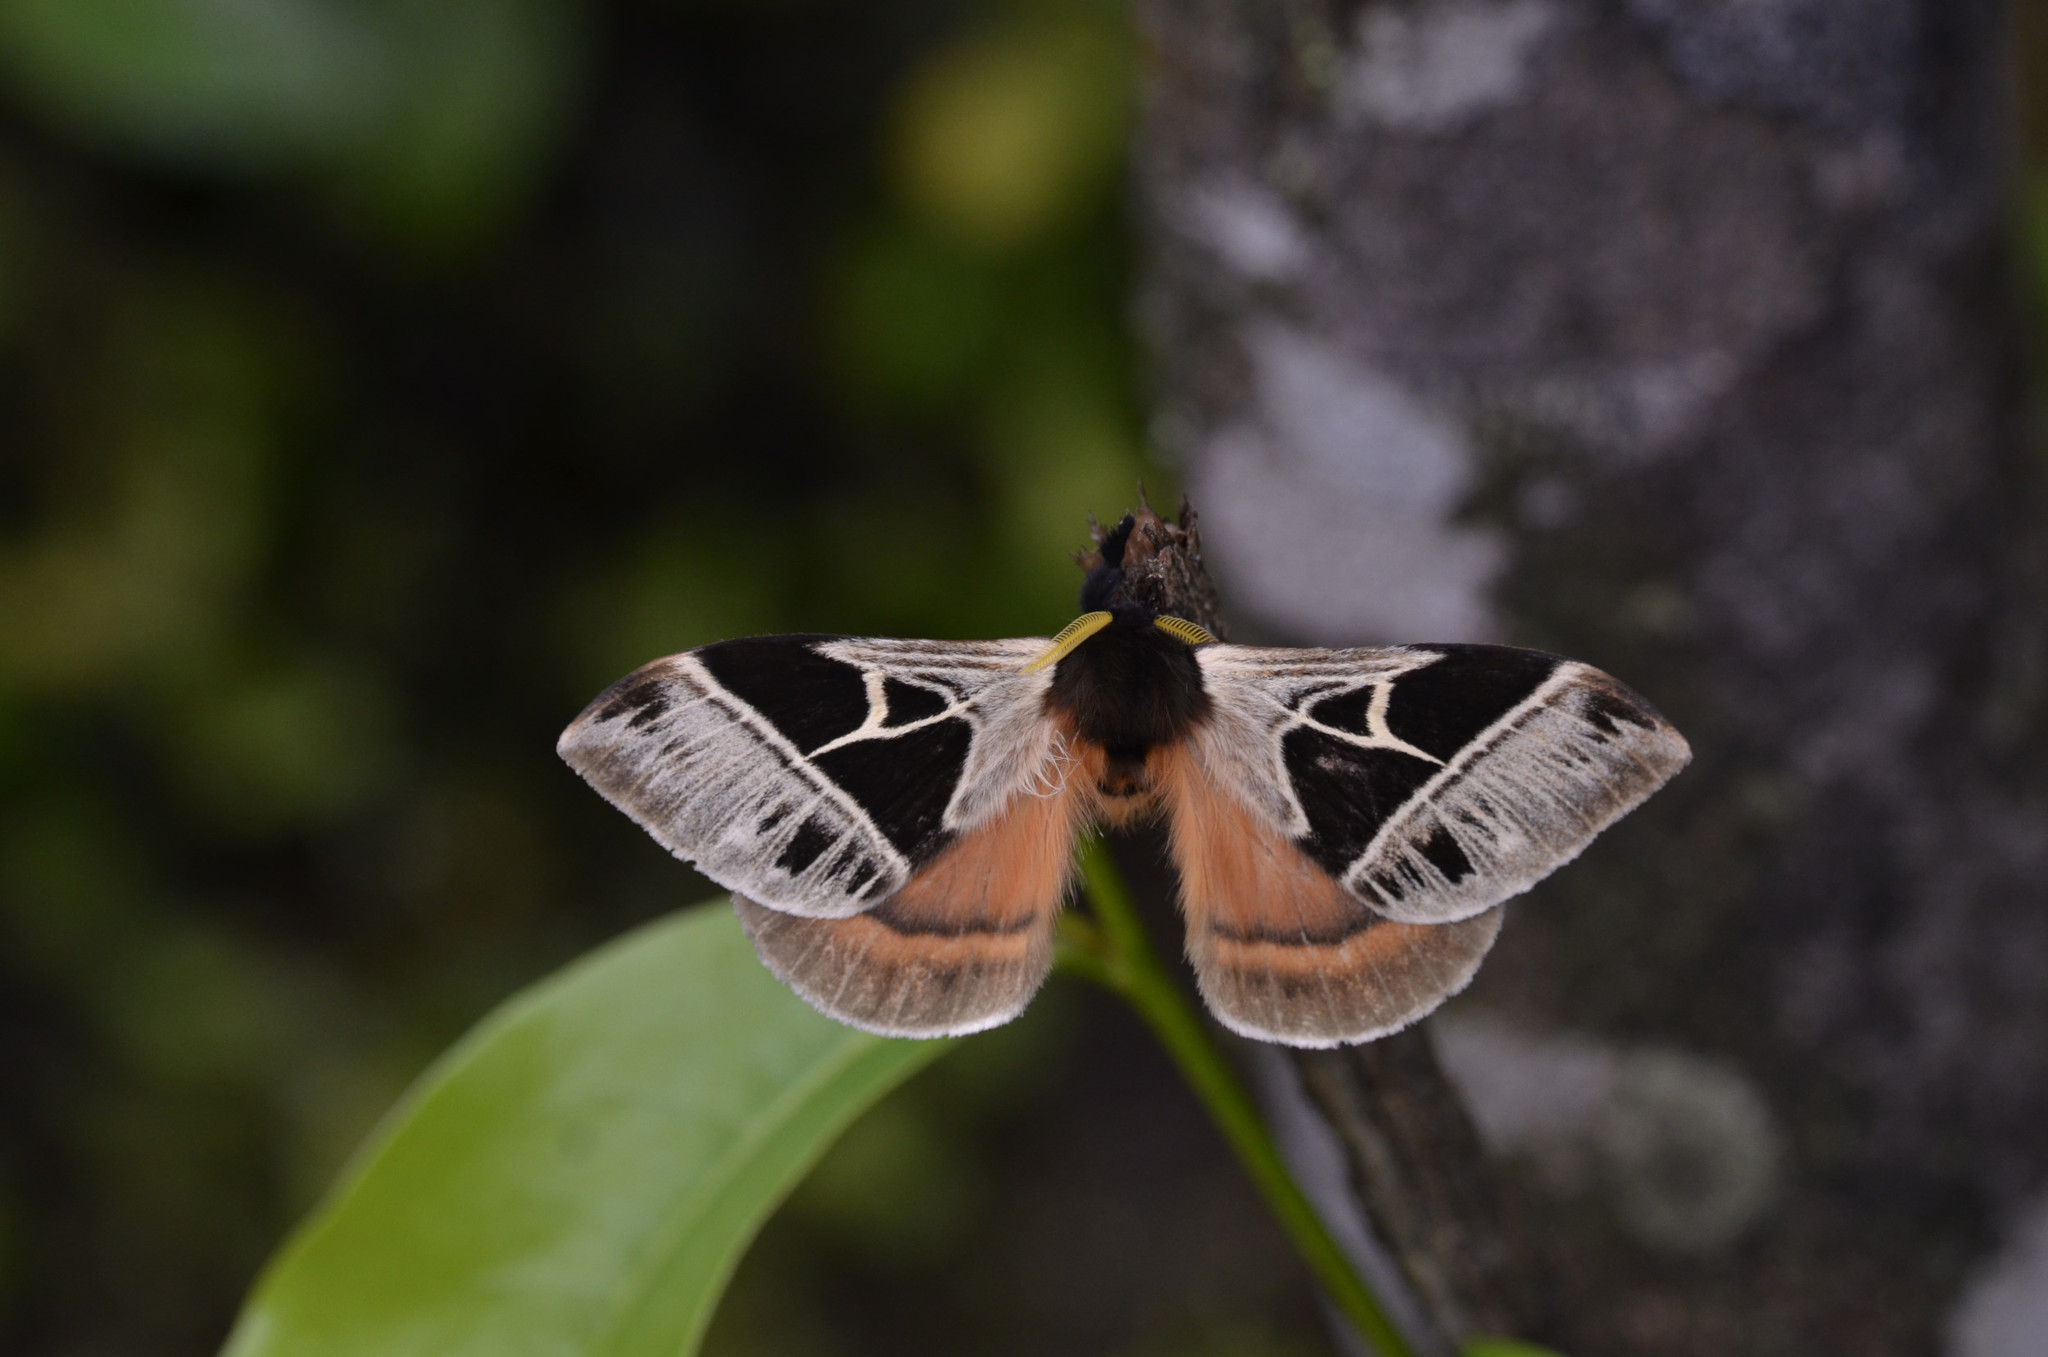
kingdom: Animalia
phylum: Arthropoda
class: Insecta
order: Lepidoptera
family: Saturniidae
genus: Dirphia
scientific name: Dirphia subhorca
